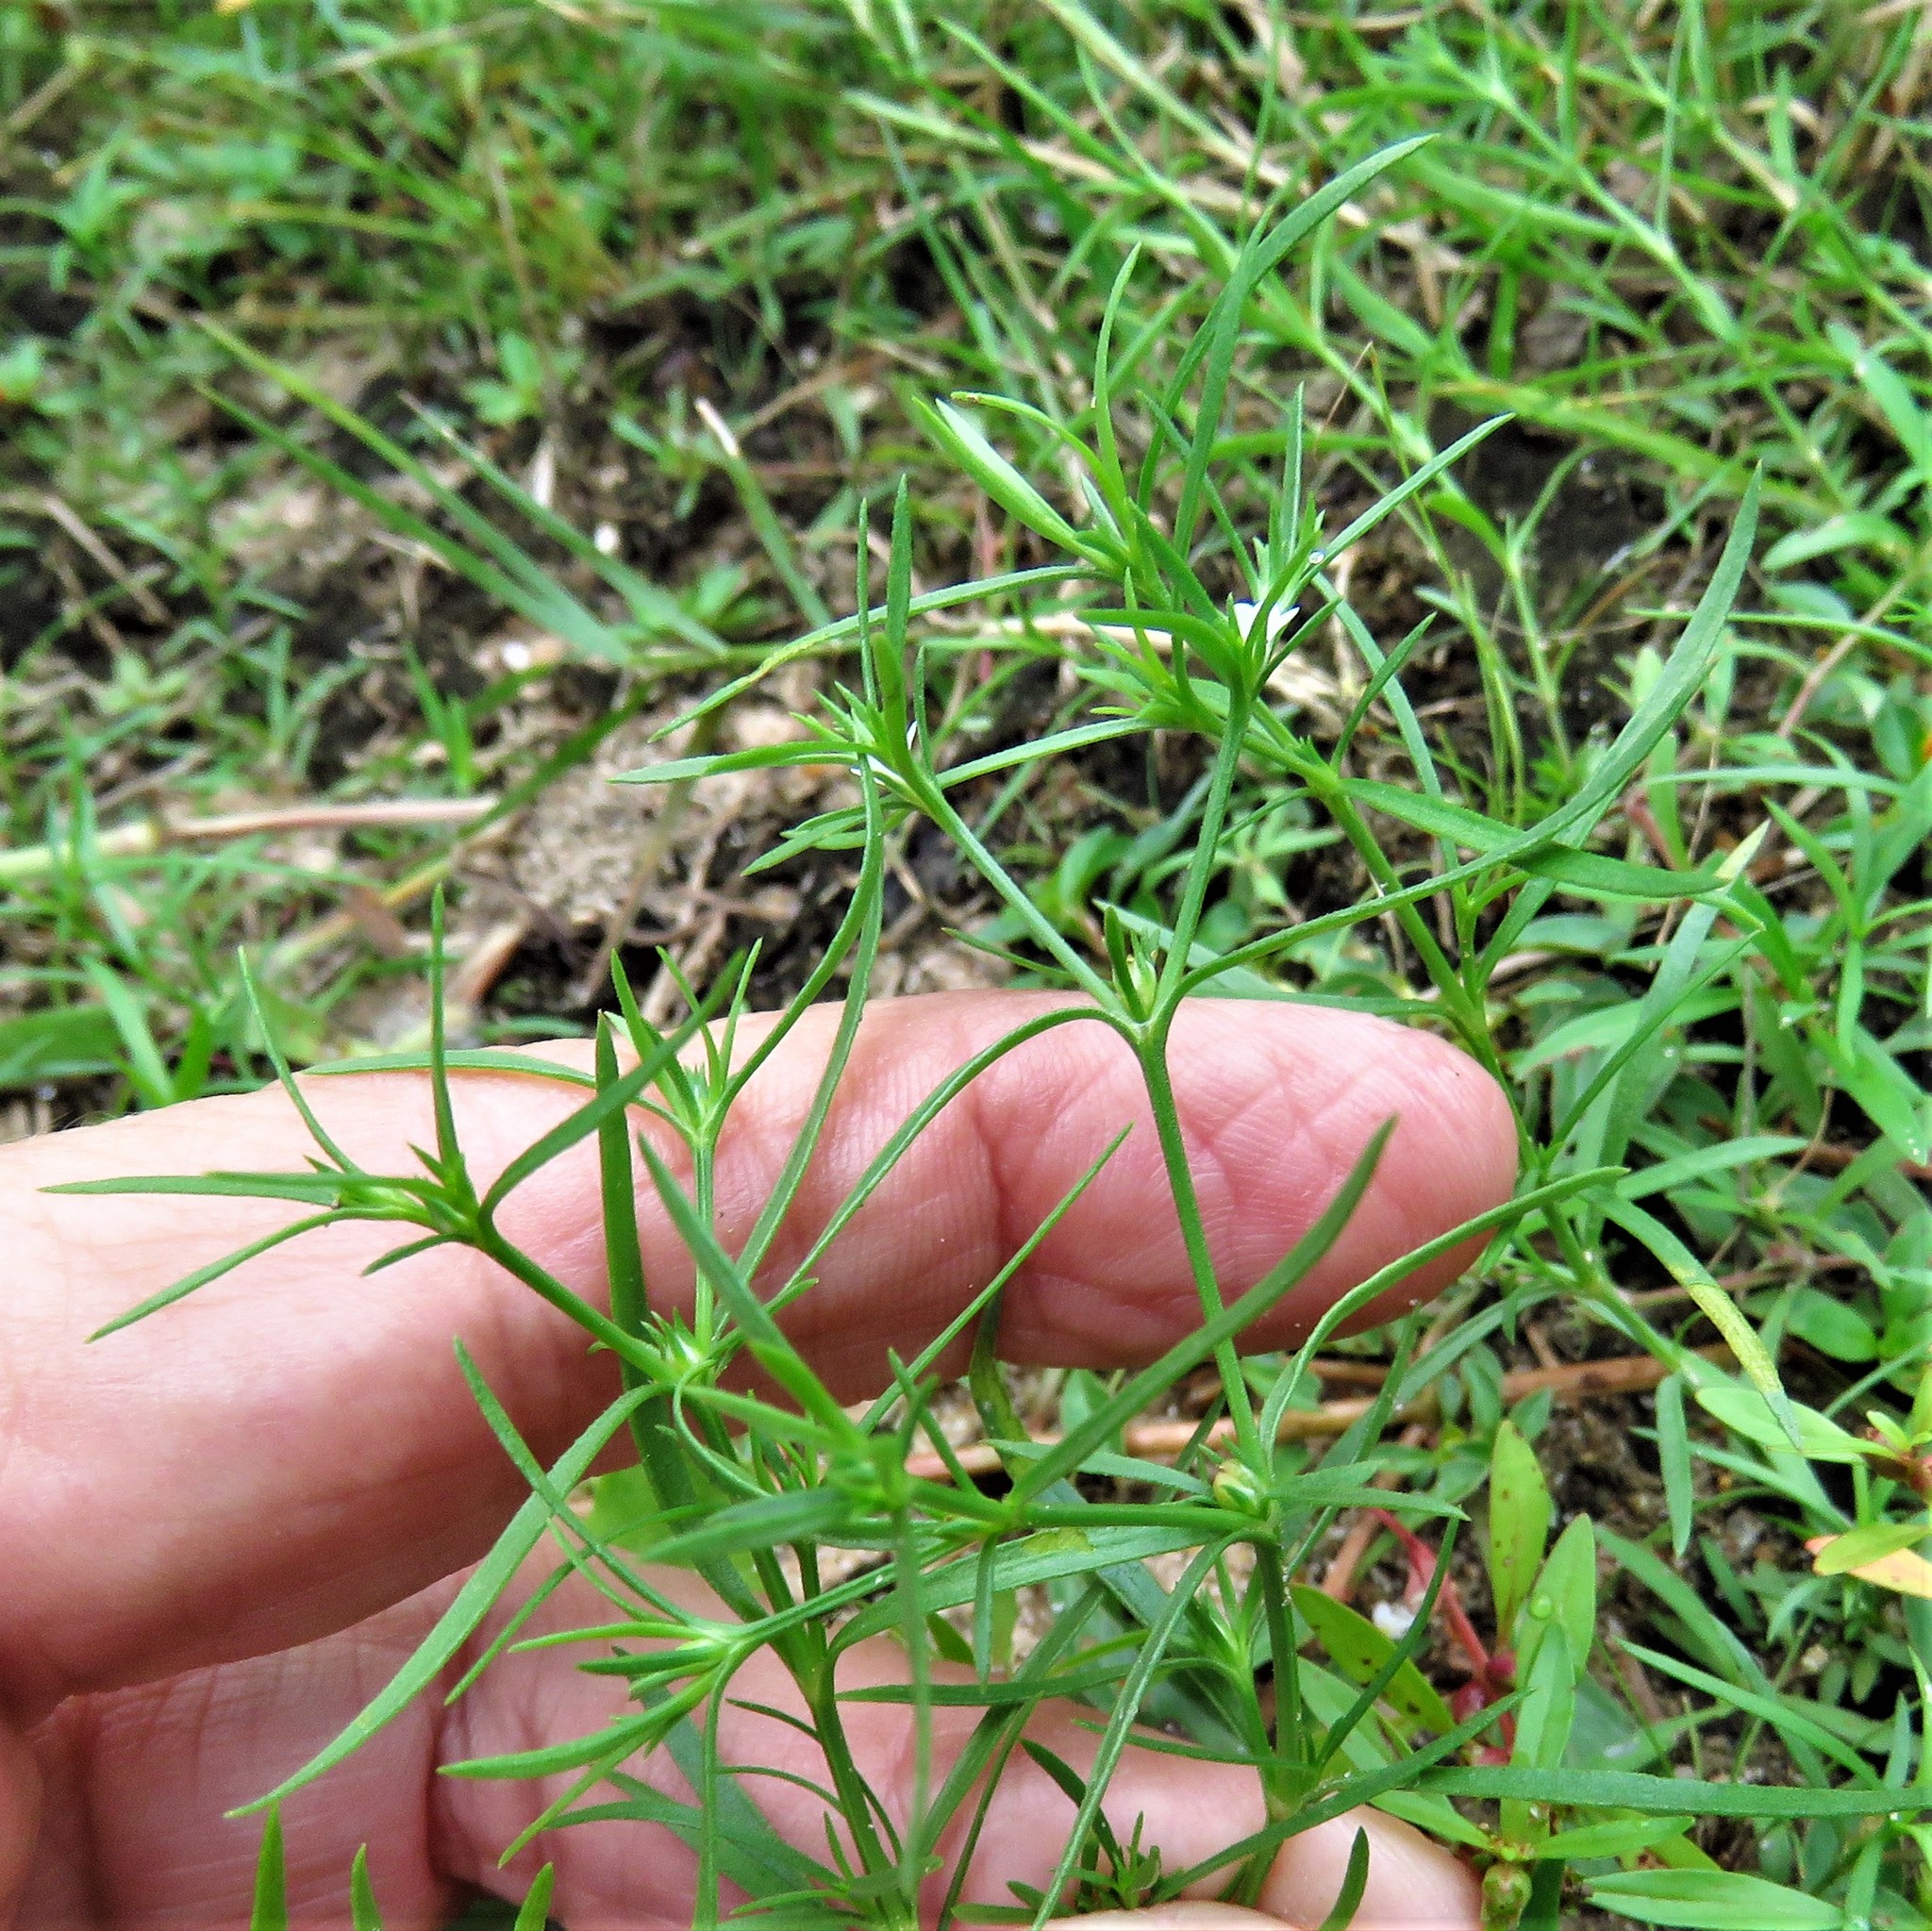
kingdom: Plantae
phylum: Tracheophyta
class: Magnoliopsida
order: Lamiales
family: Tetrachondraceae
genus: Polypremum
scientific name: Polypremum procumbens
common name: Juniper-leaf
